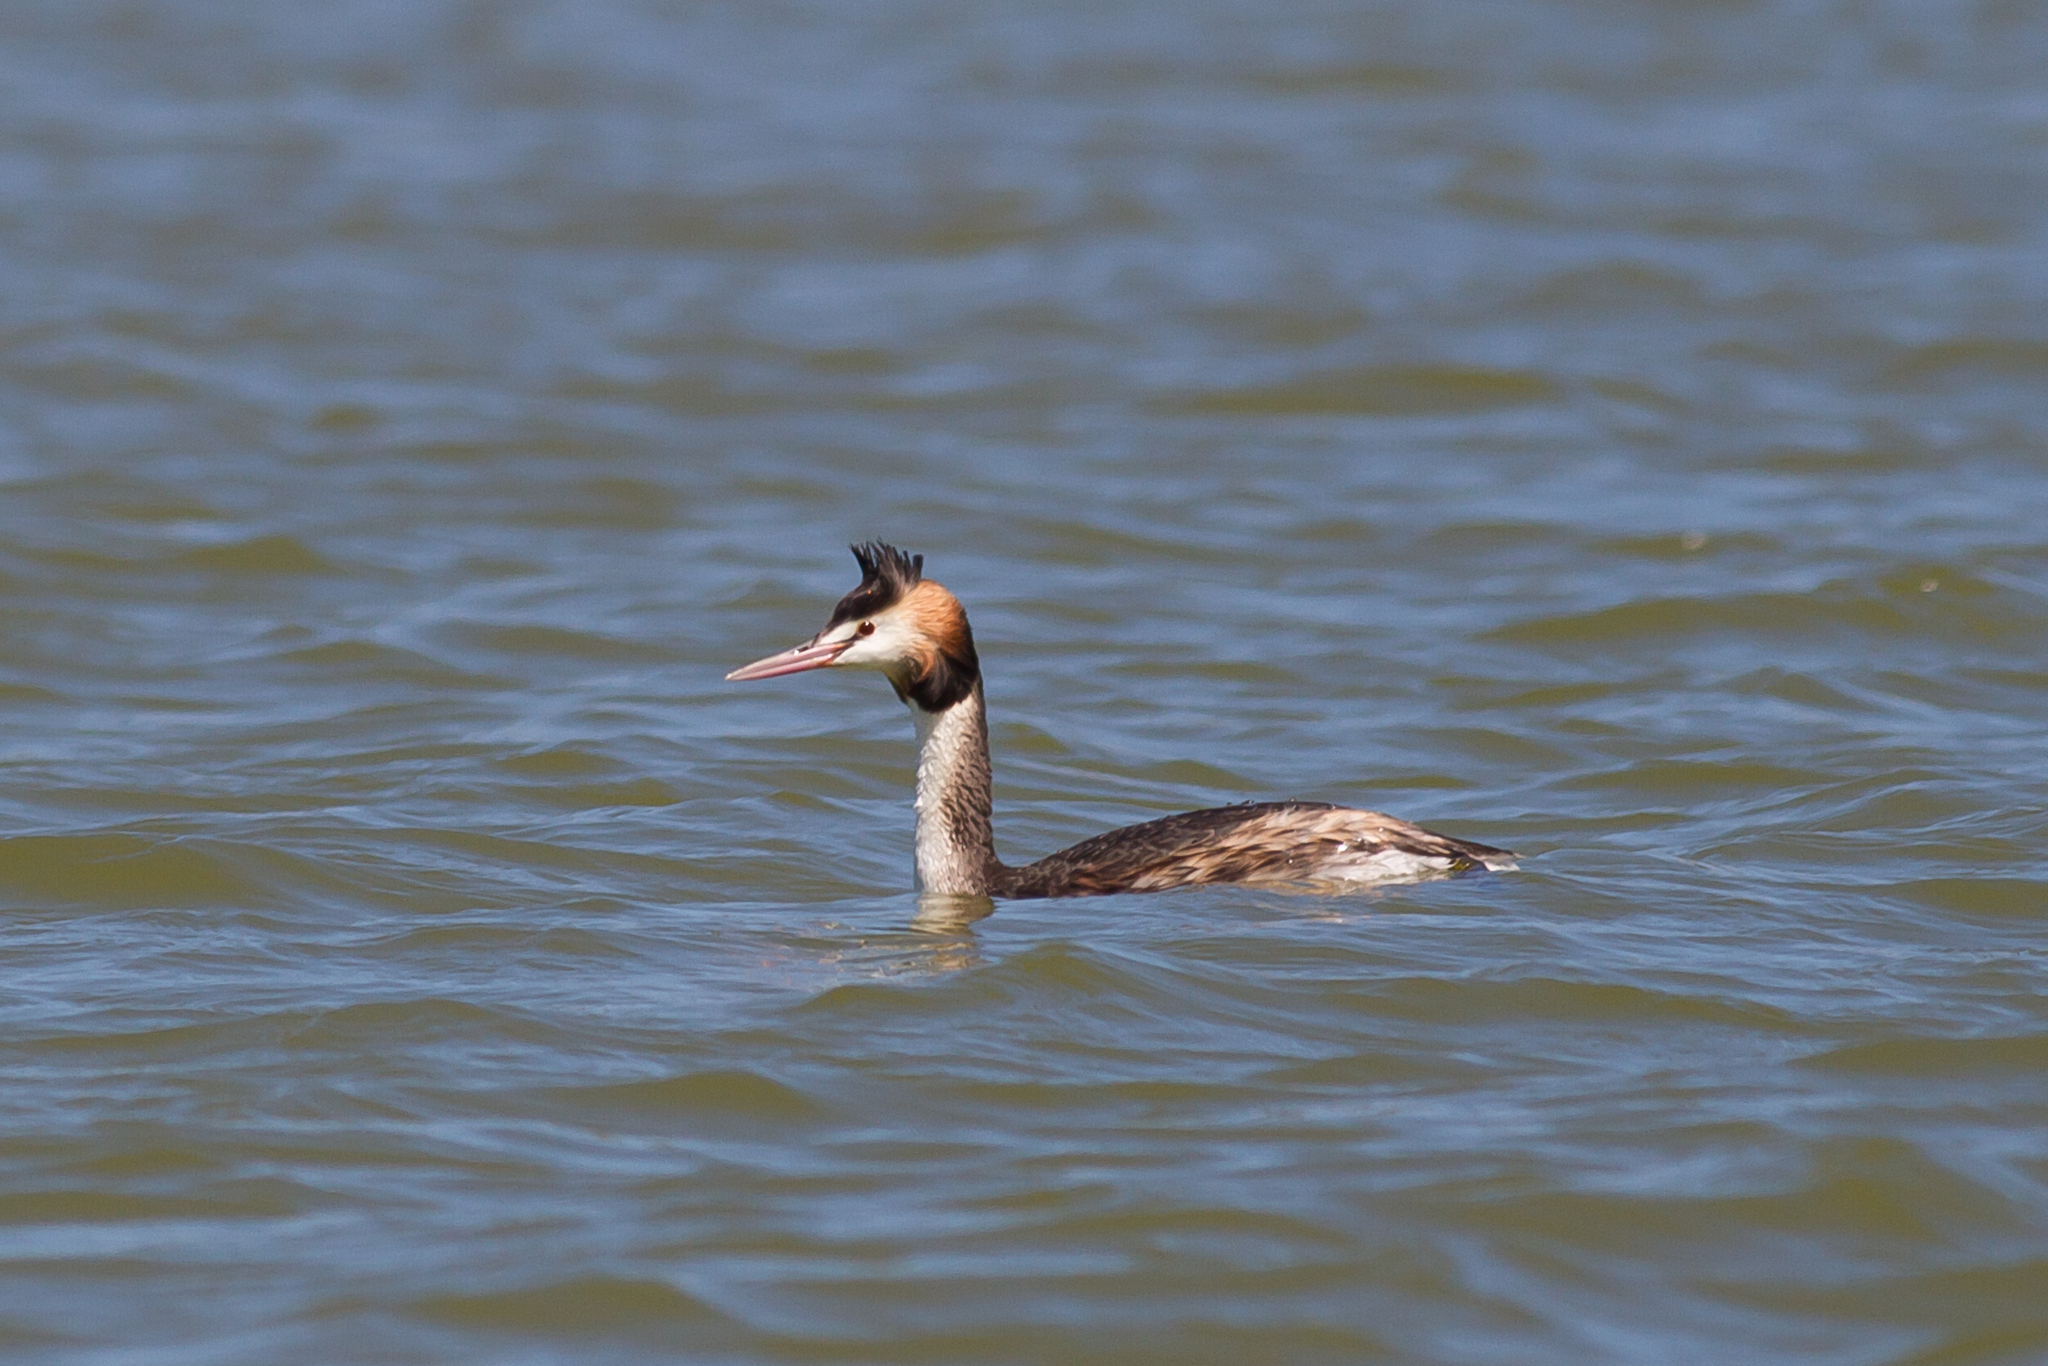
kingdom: Animalia
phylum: Chordata
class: Aves
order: Podicipediformes
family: Podicipedidae
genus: Podiceps
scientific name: Podiceps cristatus
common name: Great crested grebe
